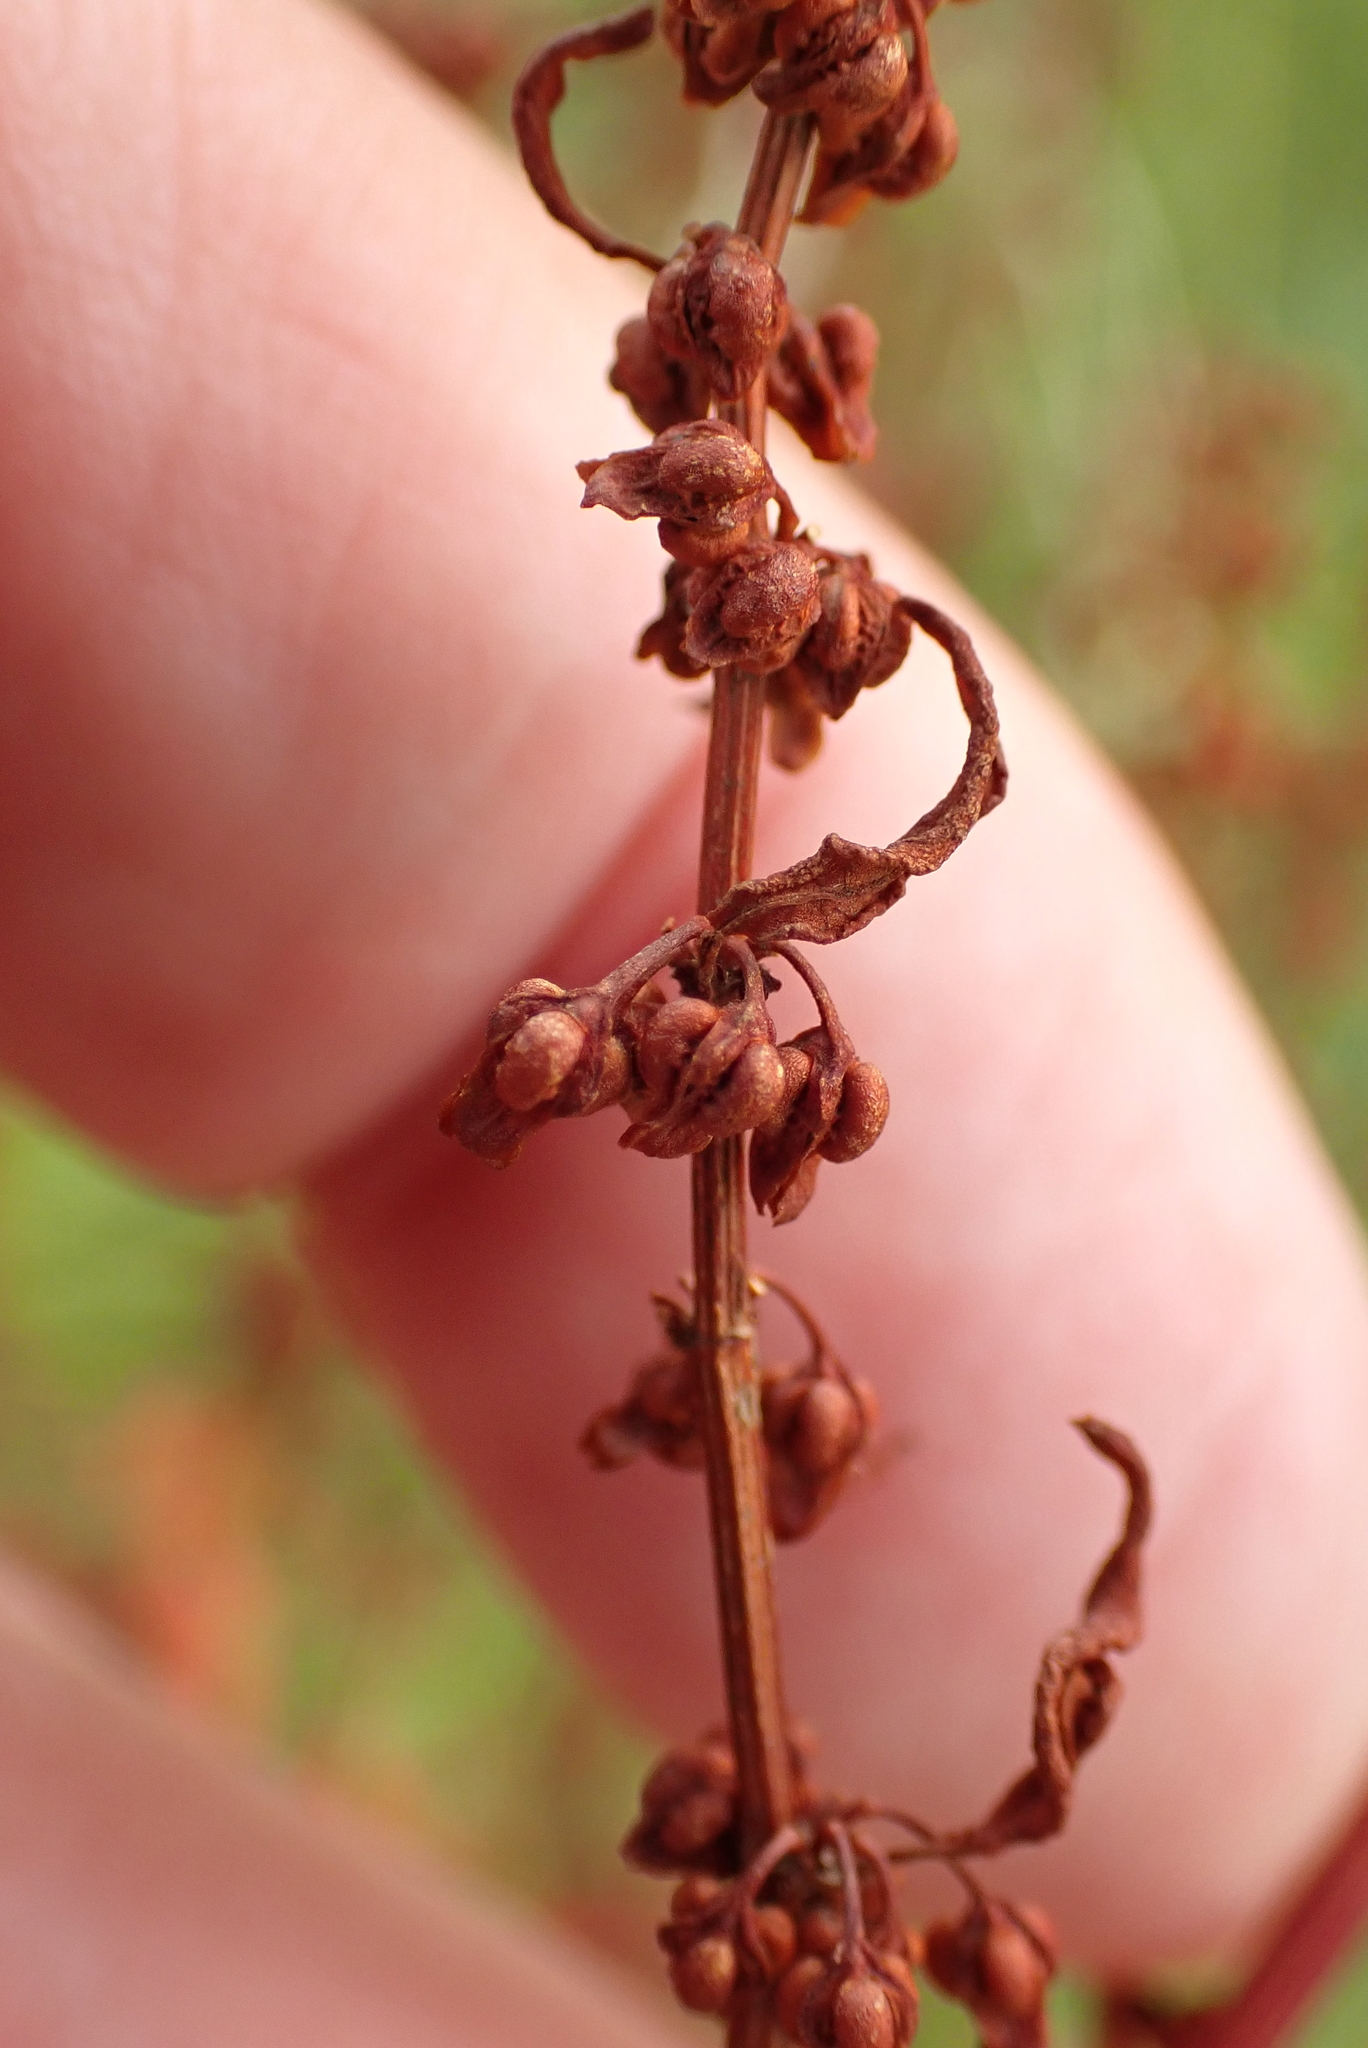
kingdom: Plantae
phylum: Tracheophyta
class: Magnoliopsida
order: Caryophyllales
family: Polygonaceae
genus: Rumex
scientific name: Rumex conglomeratus
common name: Clustered dock
